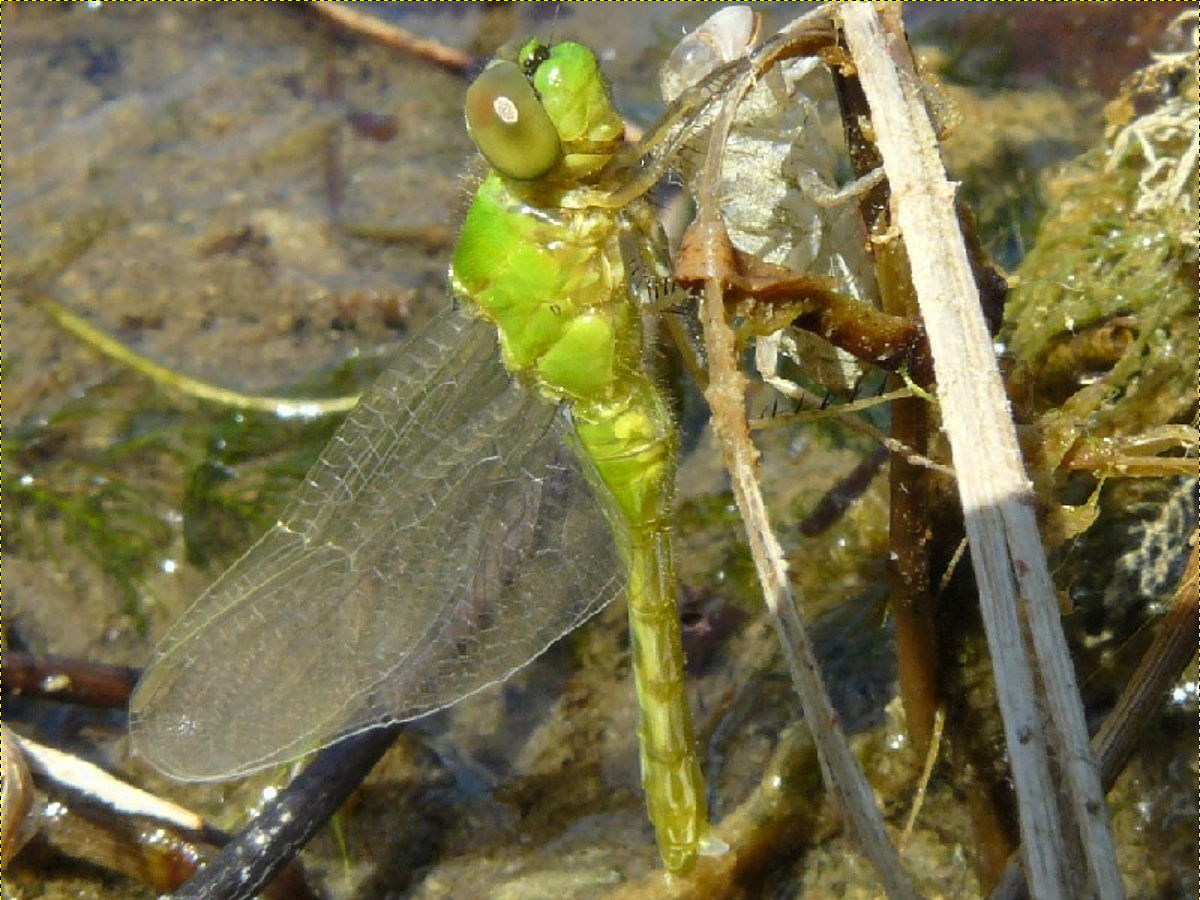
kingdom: Animalia
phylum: Arthropoda
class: Insecta
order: Odonata
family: Libellulidae
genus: Erythemis
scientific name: Erythemis simplicicollis
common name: Eastern pondhawk
